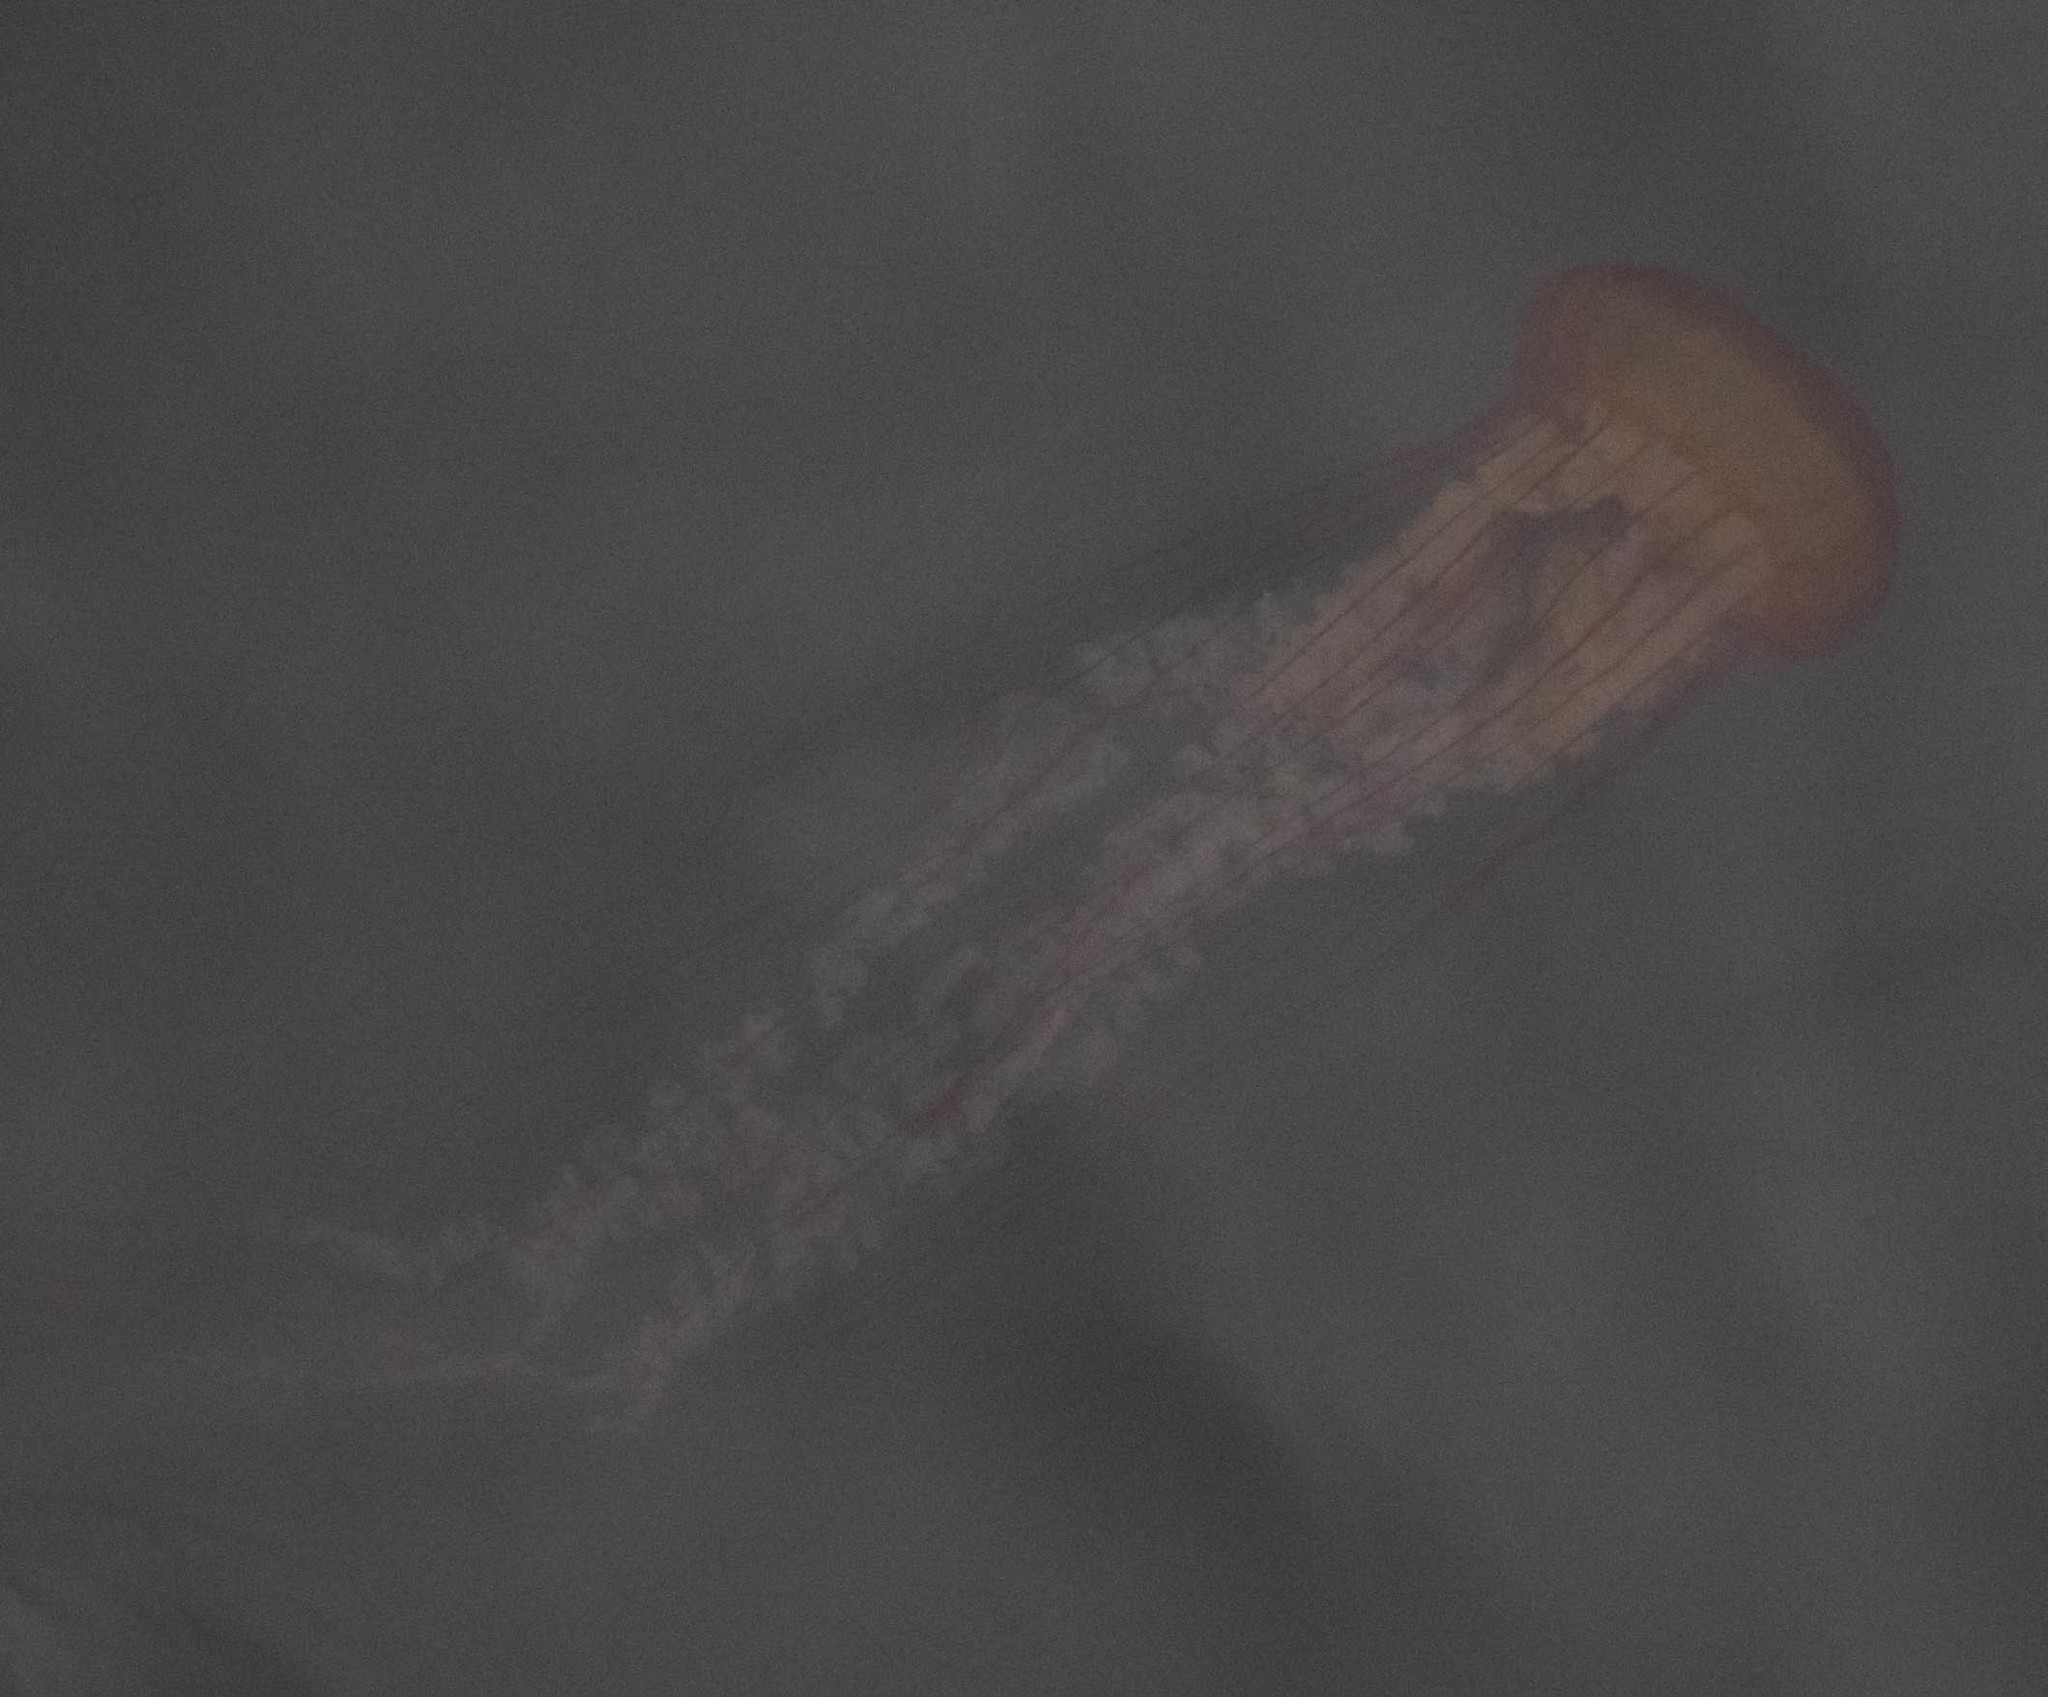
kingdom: Animalia
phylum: Cnidaria
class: Scyphozoa
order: Semaeostomeae
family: Pelagiidae
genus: Chrysaora
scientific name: Chrysaora fuscescens
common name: Sea nettle
